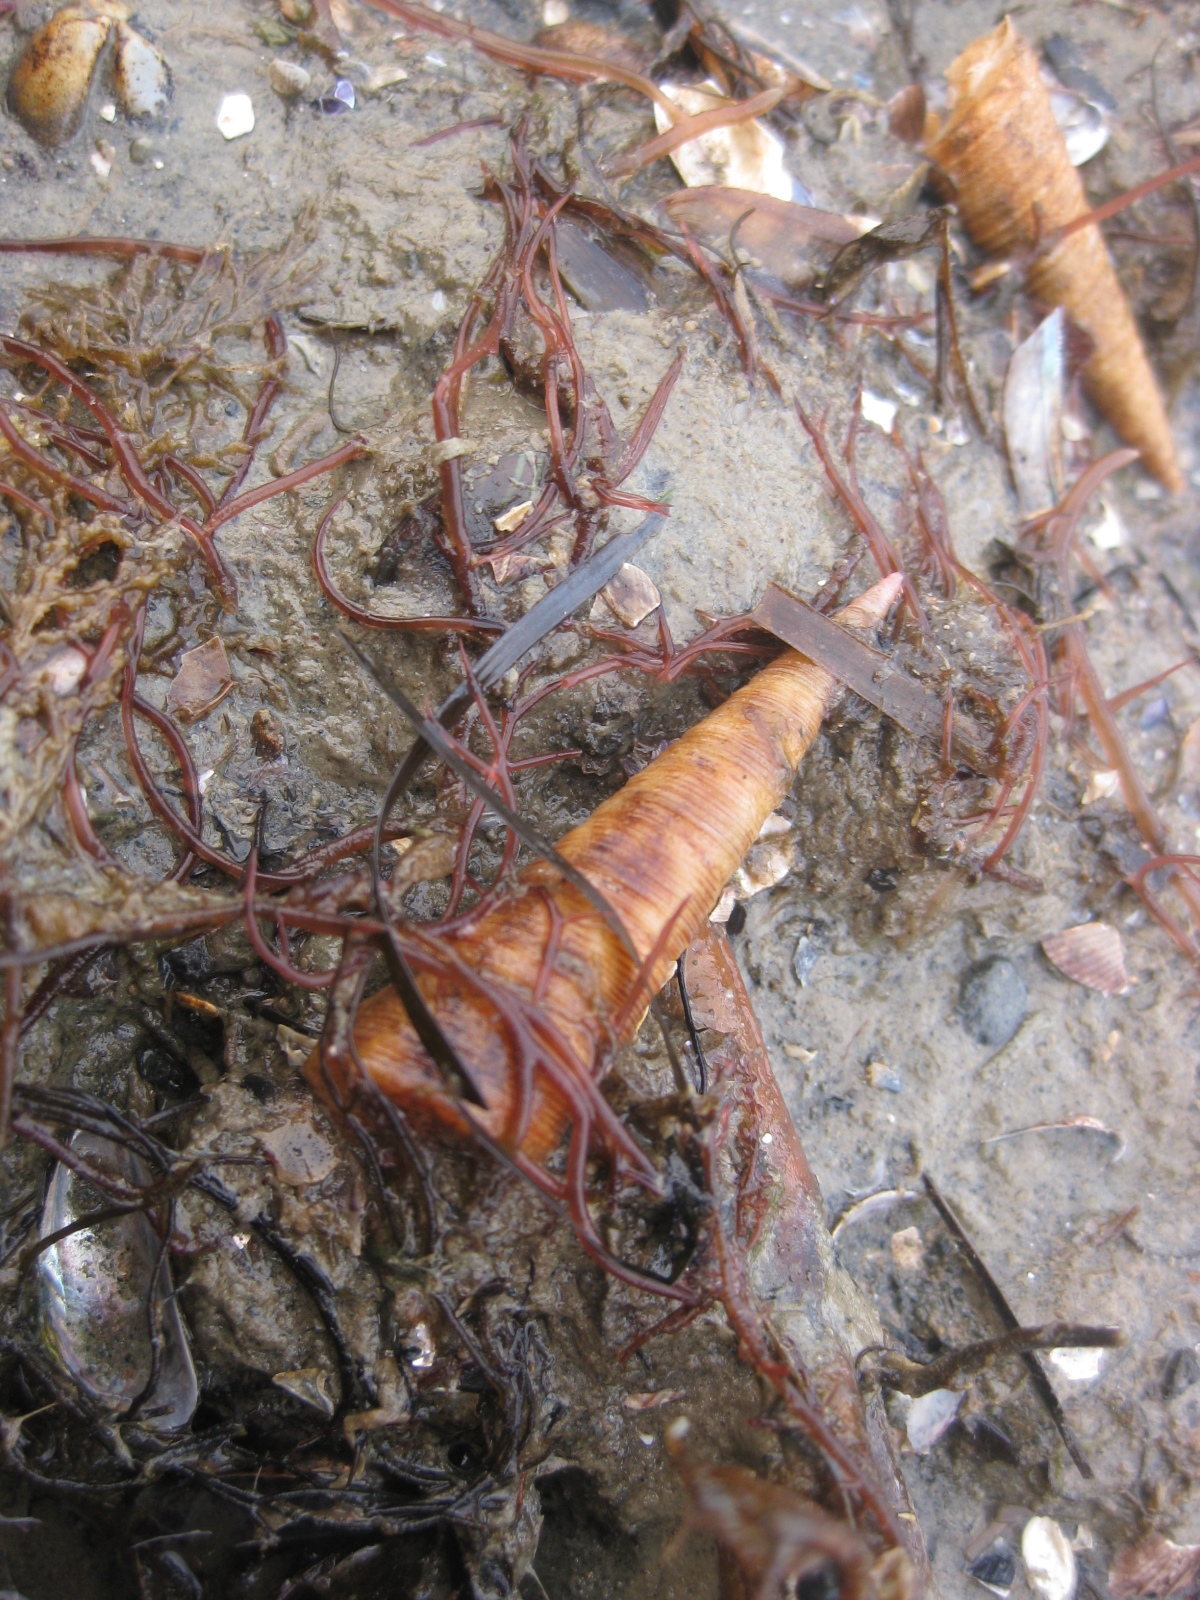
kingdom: Animalia
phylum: Mollusca
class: Gastropoda
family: Turritellidae
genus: Maoricolpus
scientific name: Maoricolpus roseus
